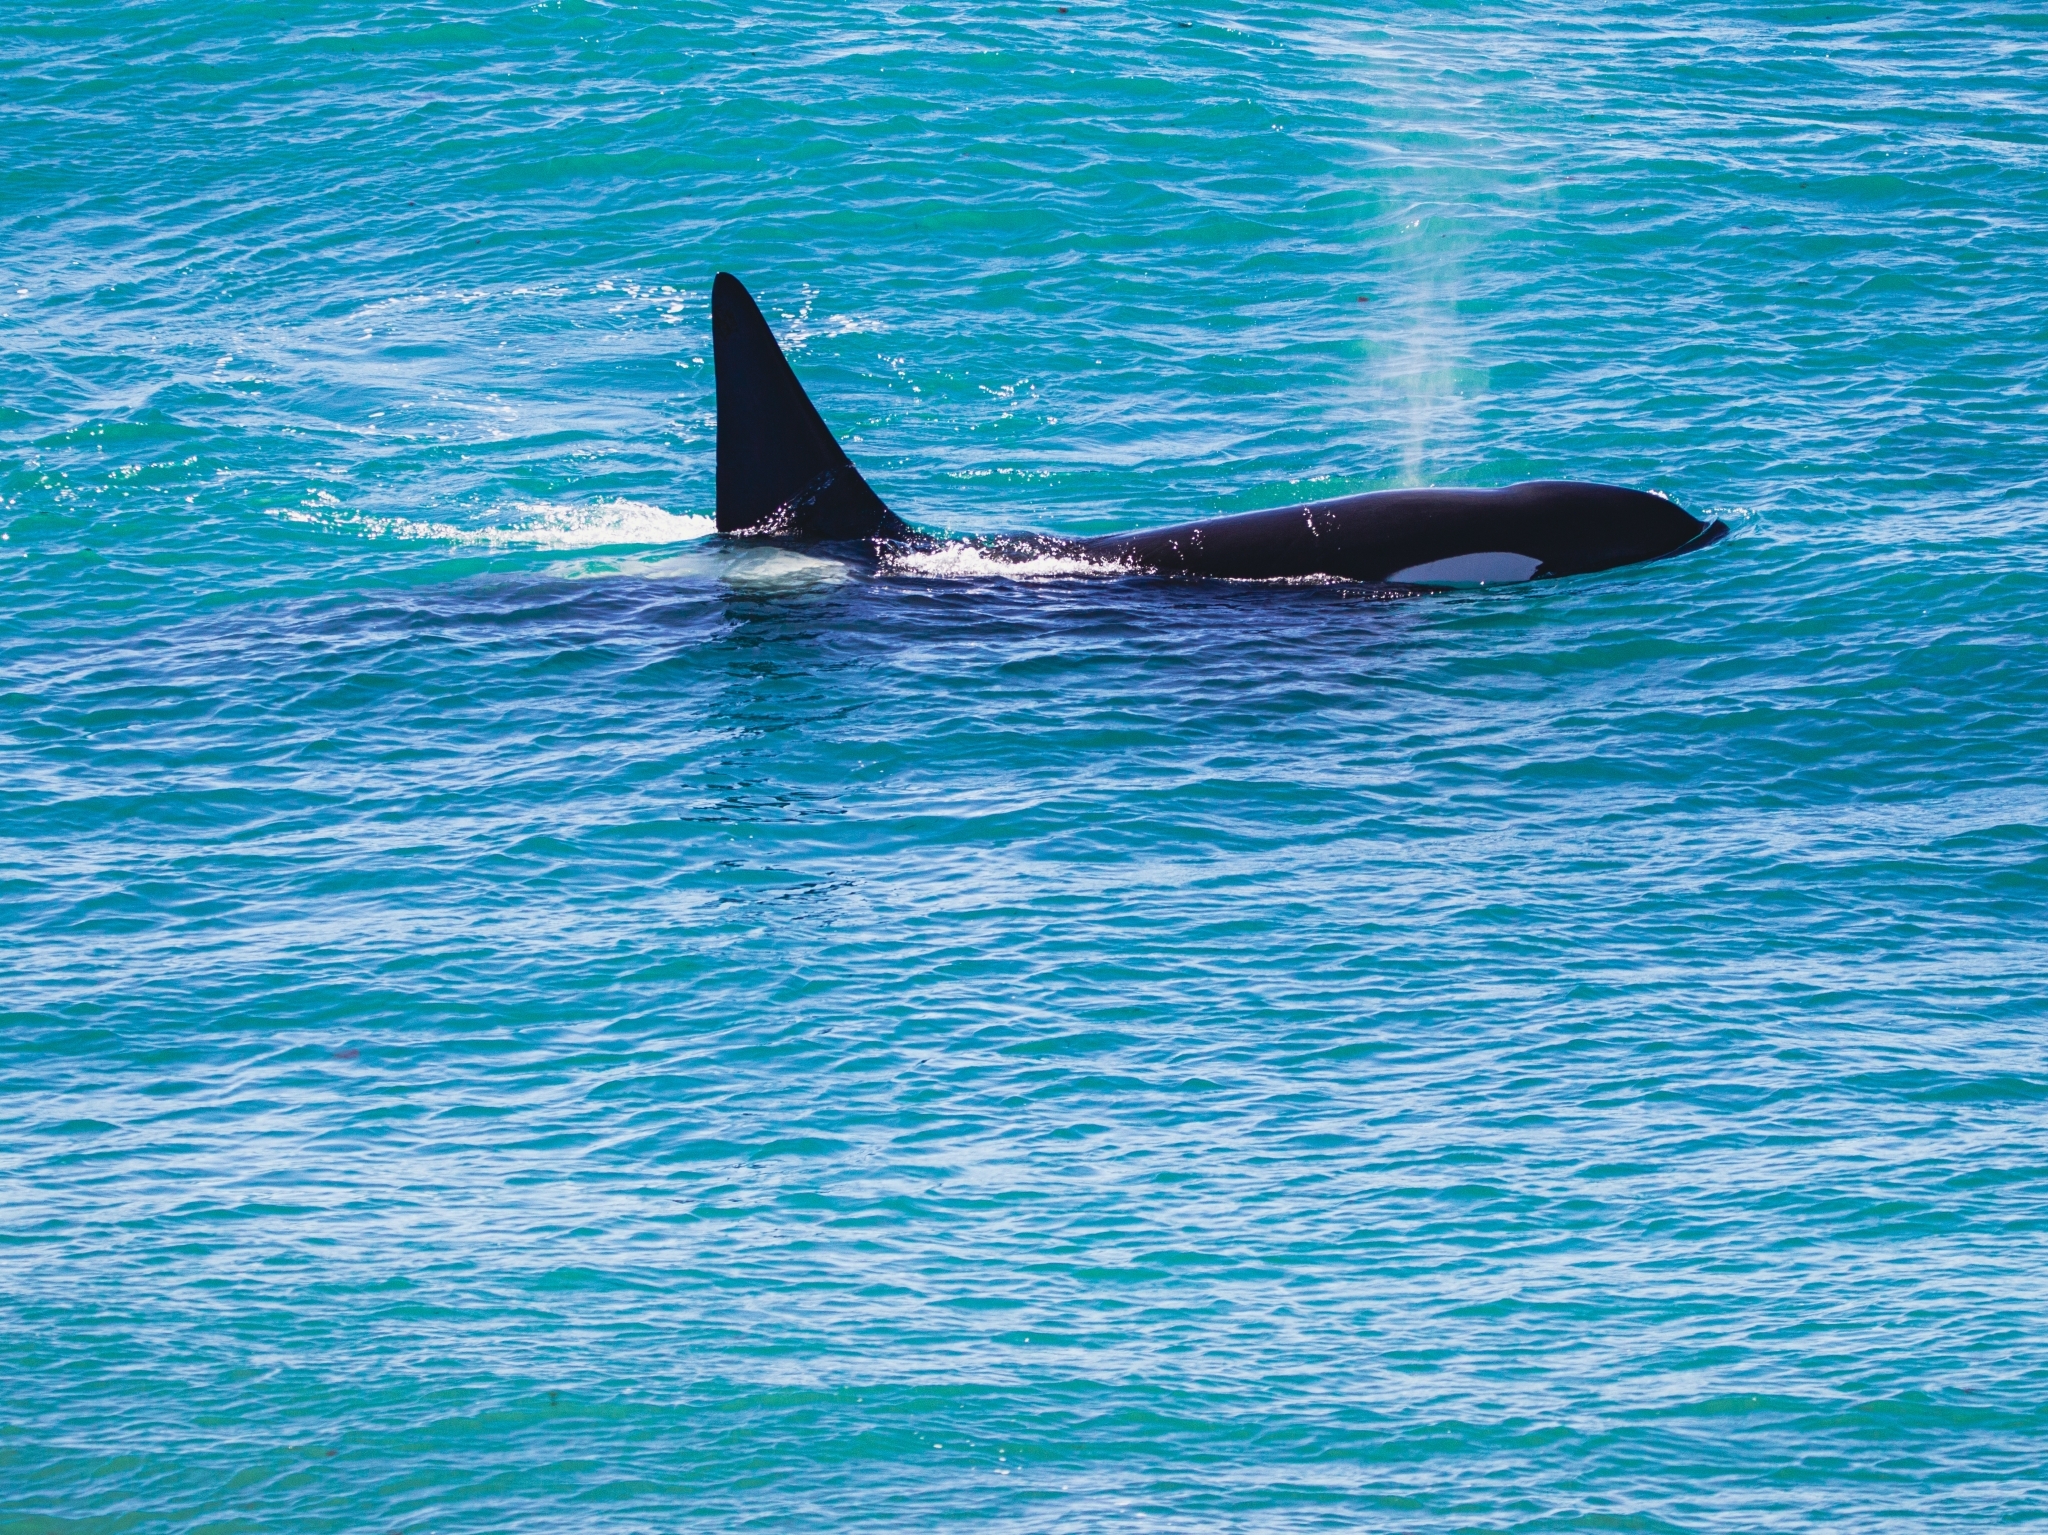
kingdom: Animalia
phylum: Chordata
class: Mammalia
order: Cetacea
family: Delphinidae
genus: Orcinus
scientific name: Orcinus orca
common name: Killer whale
